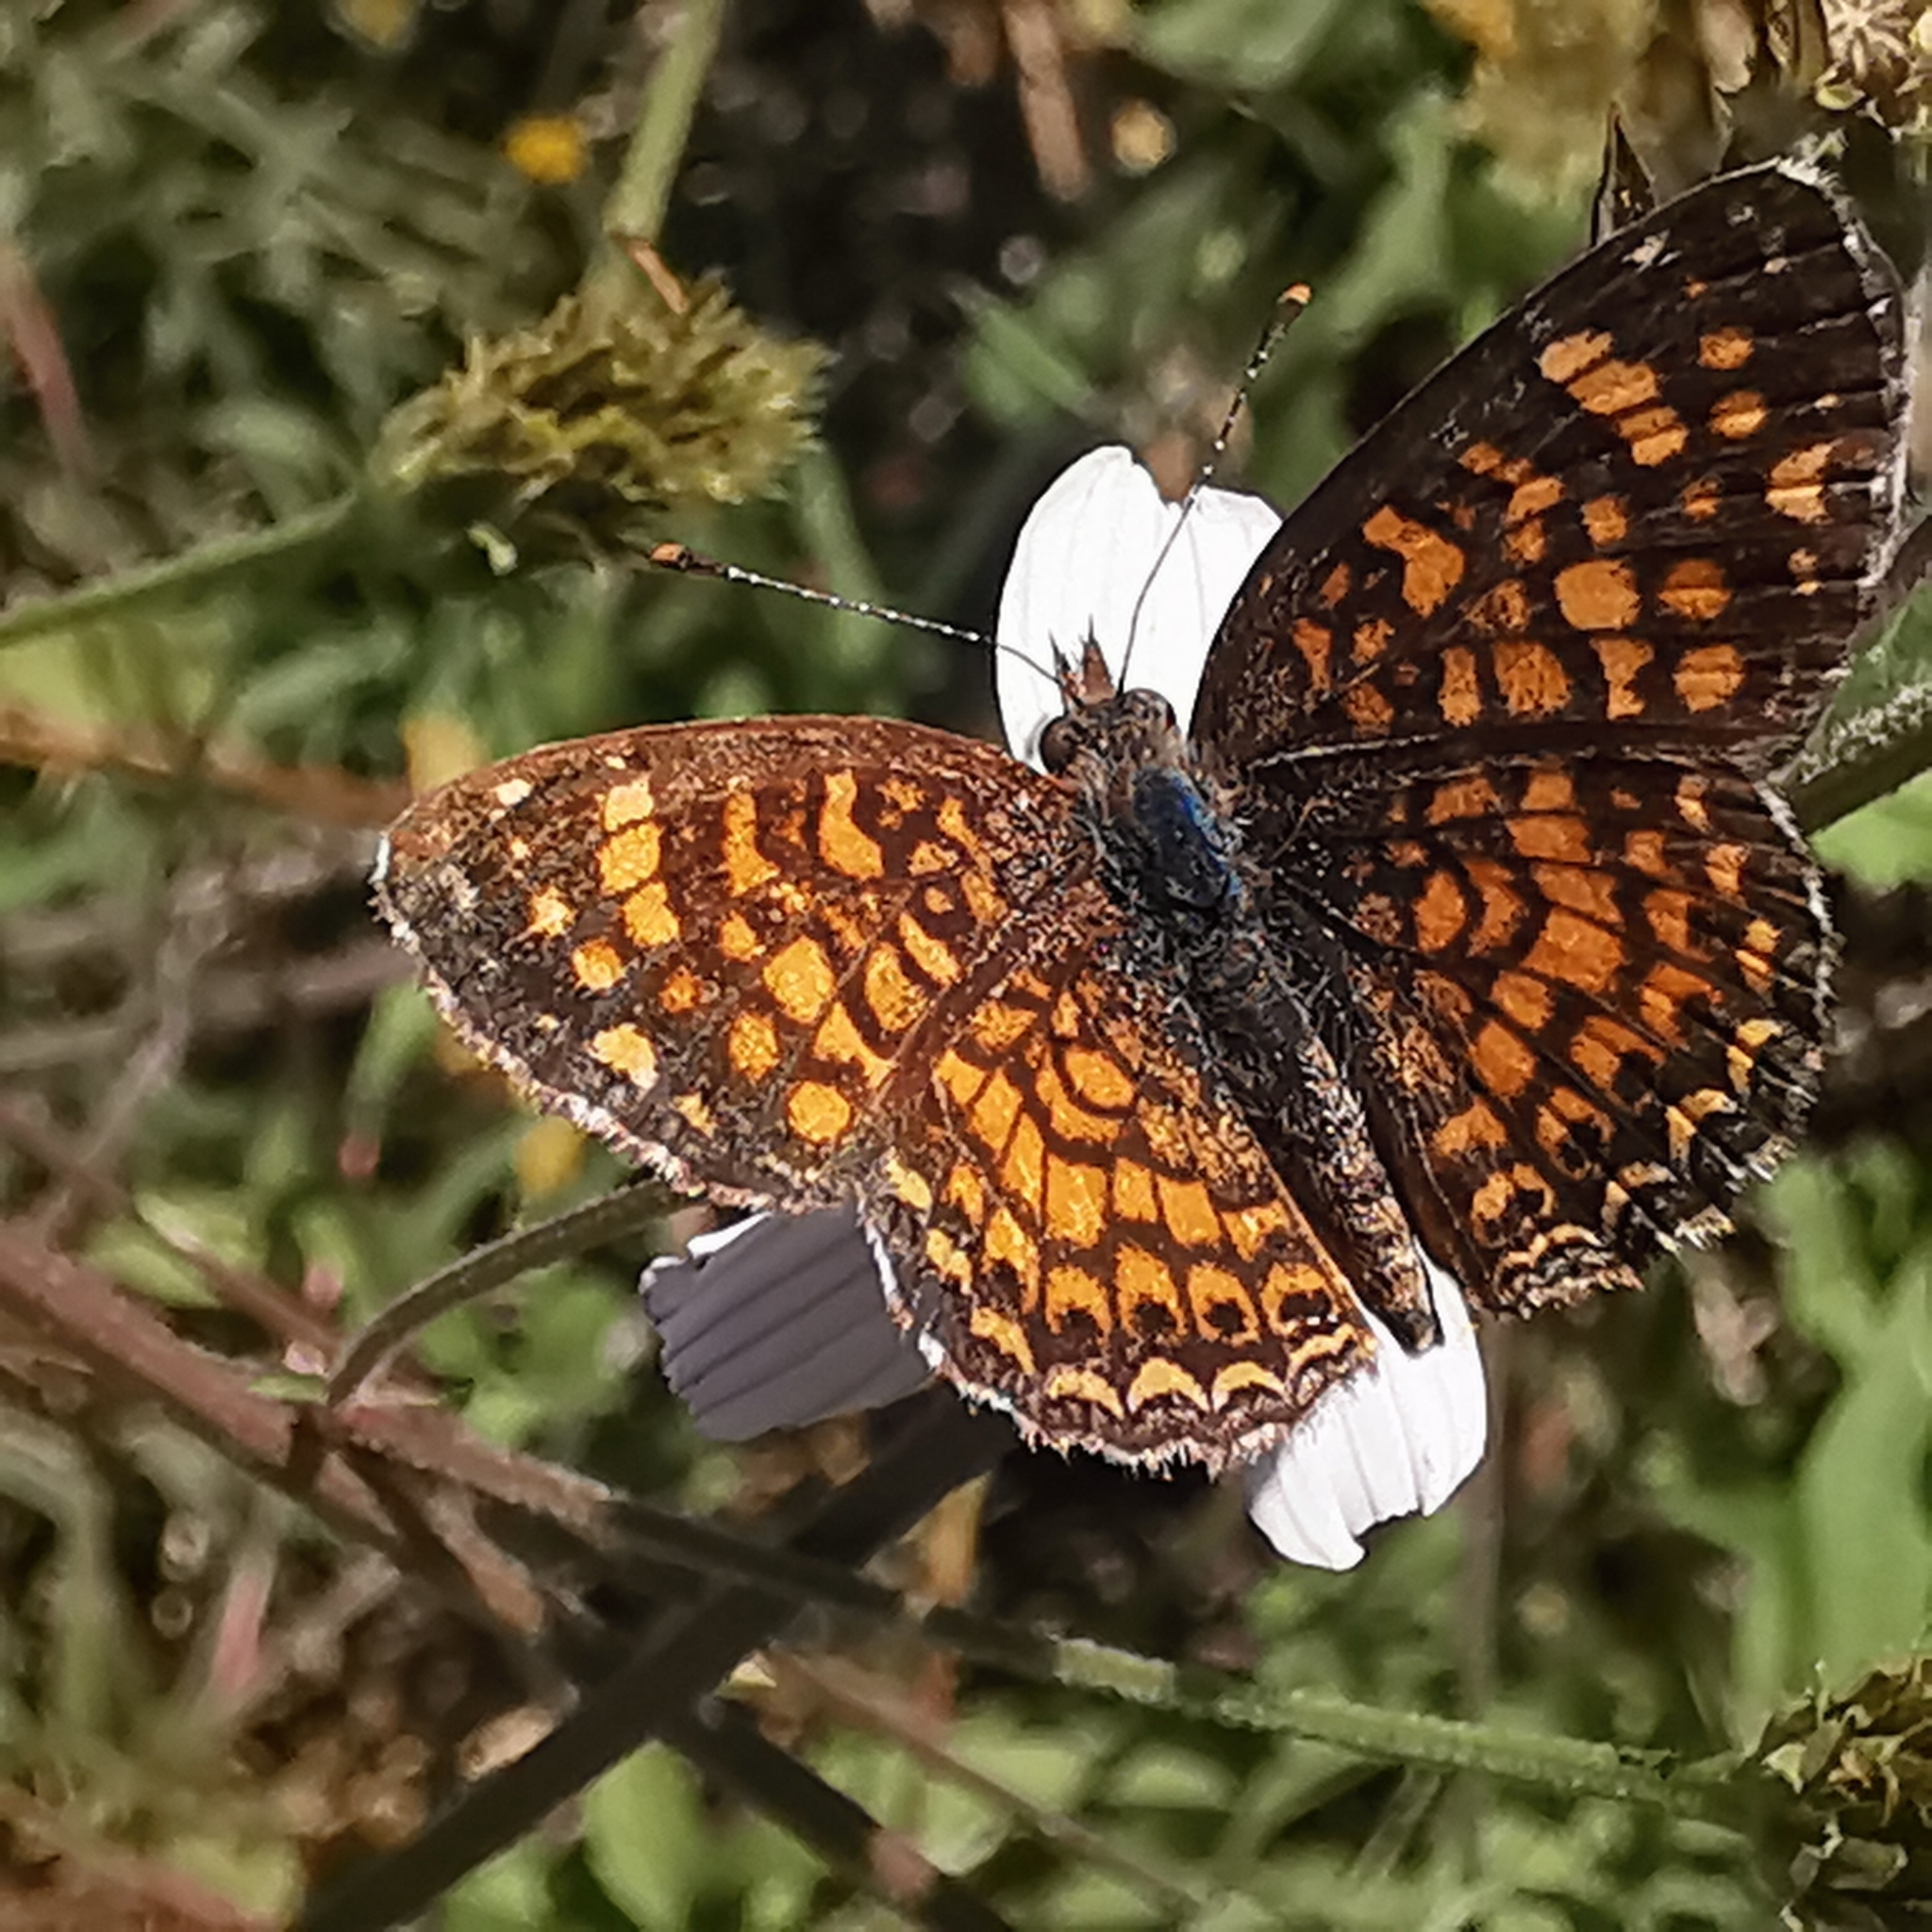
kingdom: Animalia
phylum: Arthropoda
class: Insecta
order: Lepidoptera
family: Nymphalidae
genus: Phyciodes
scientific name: Phyciodes vesta
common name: Vesta crescent
